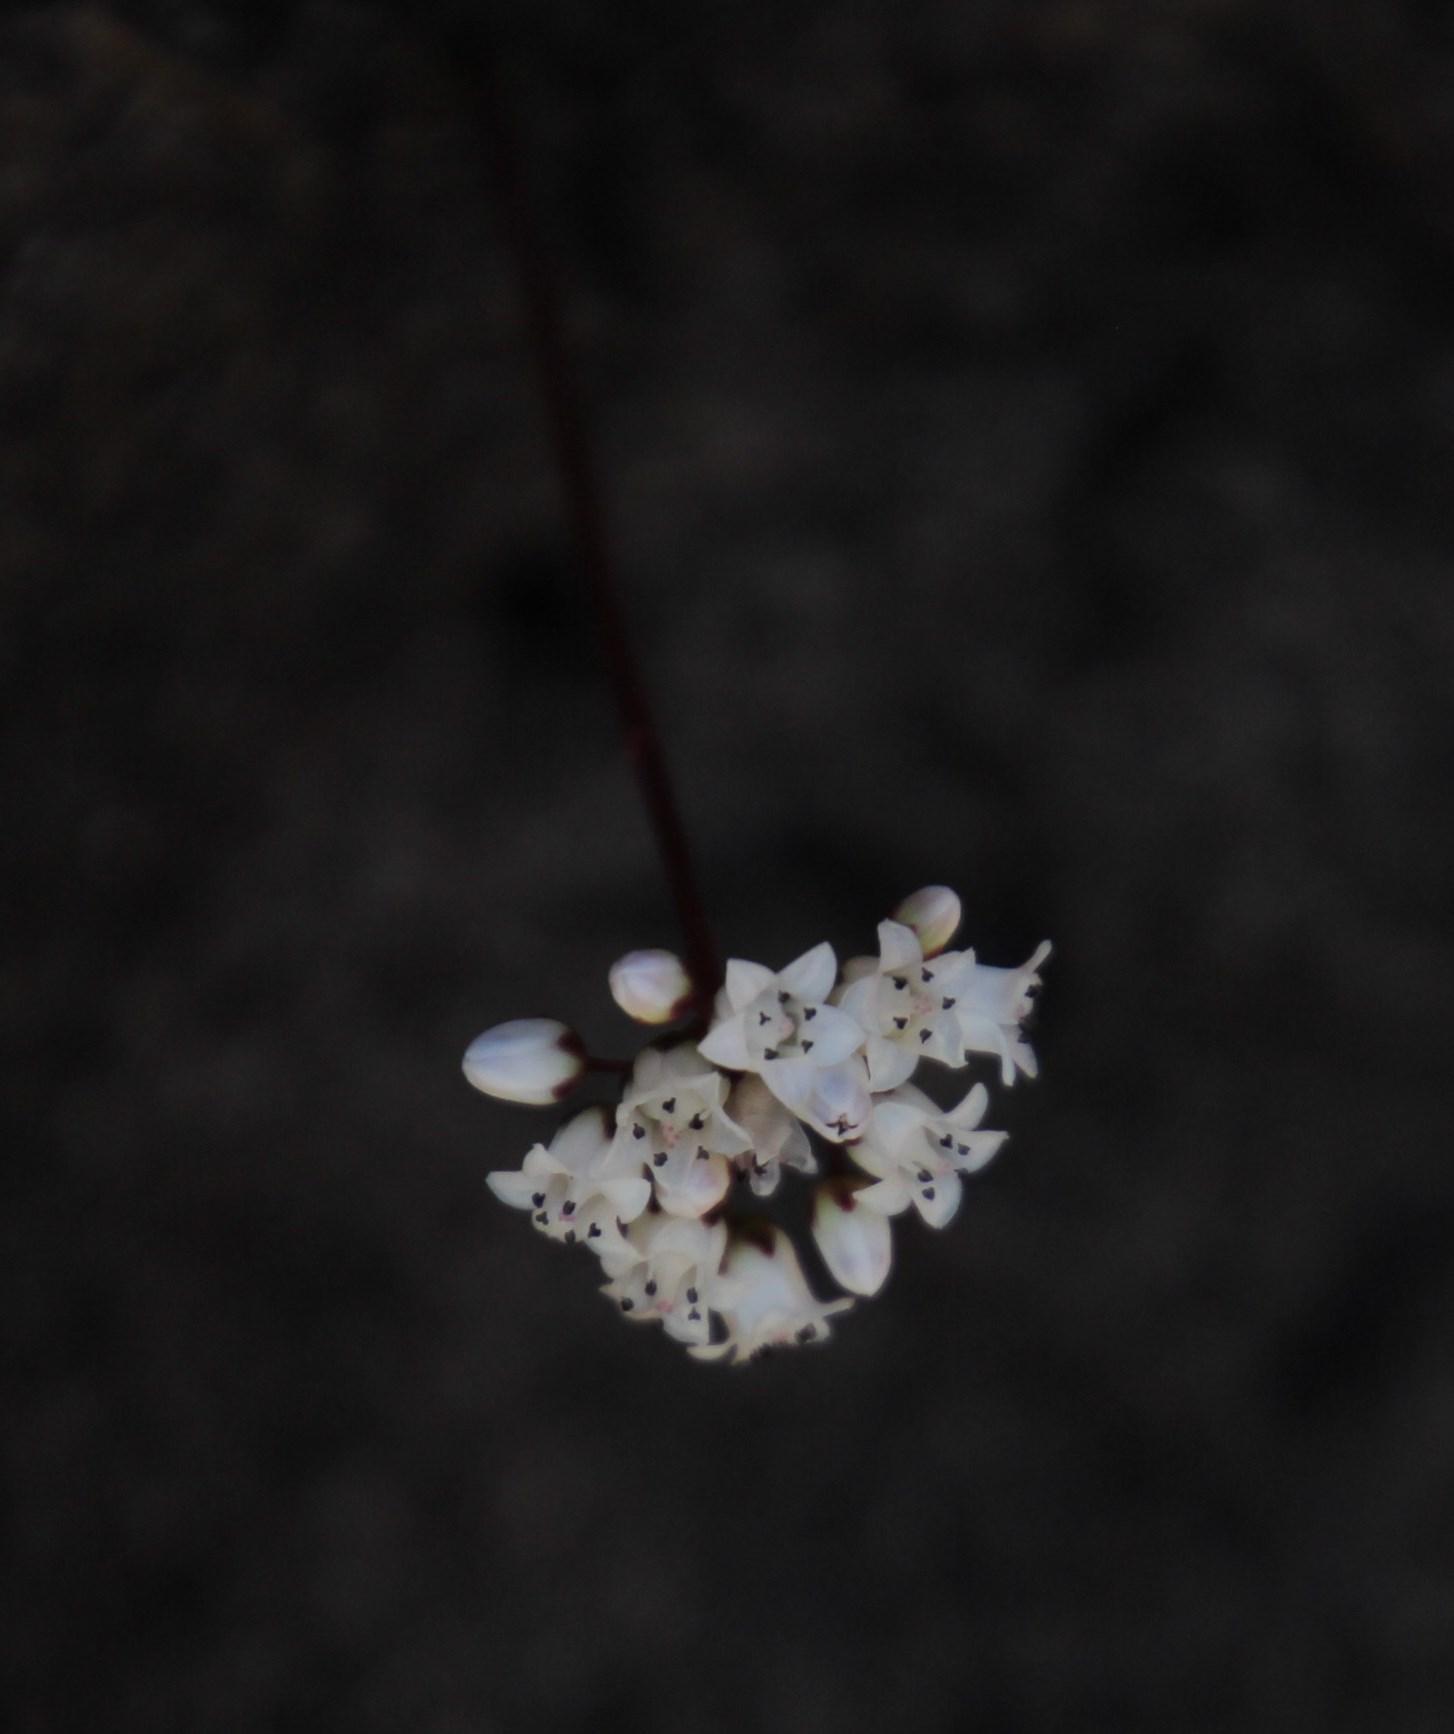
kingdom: Plantae
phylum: Tracheophyta
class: Magnoliopsida
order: Saxifragales
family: Crassulaceae
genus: Crassula
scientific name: Crassula saxifraga
